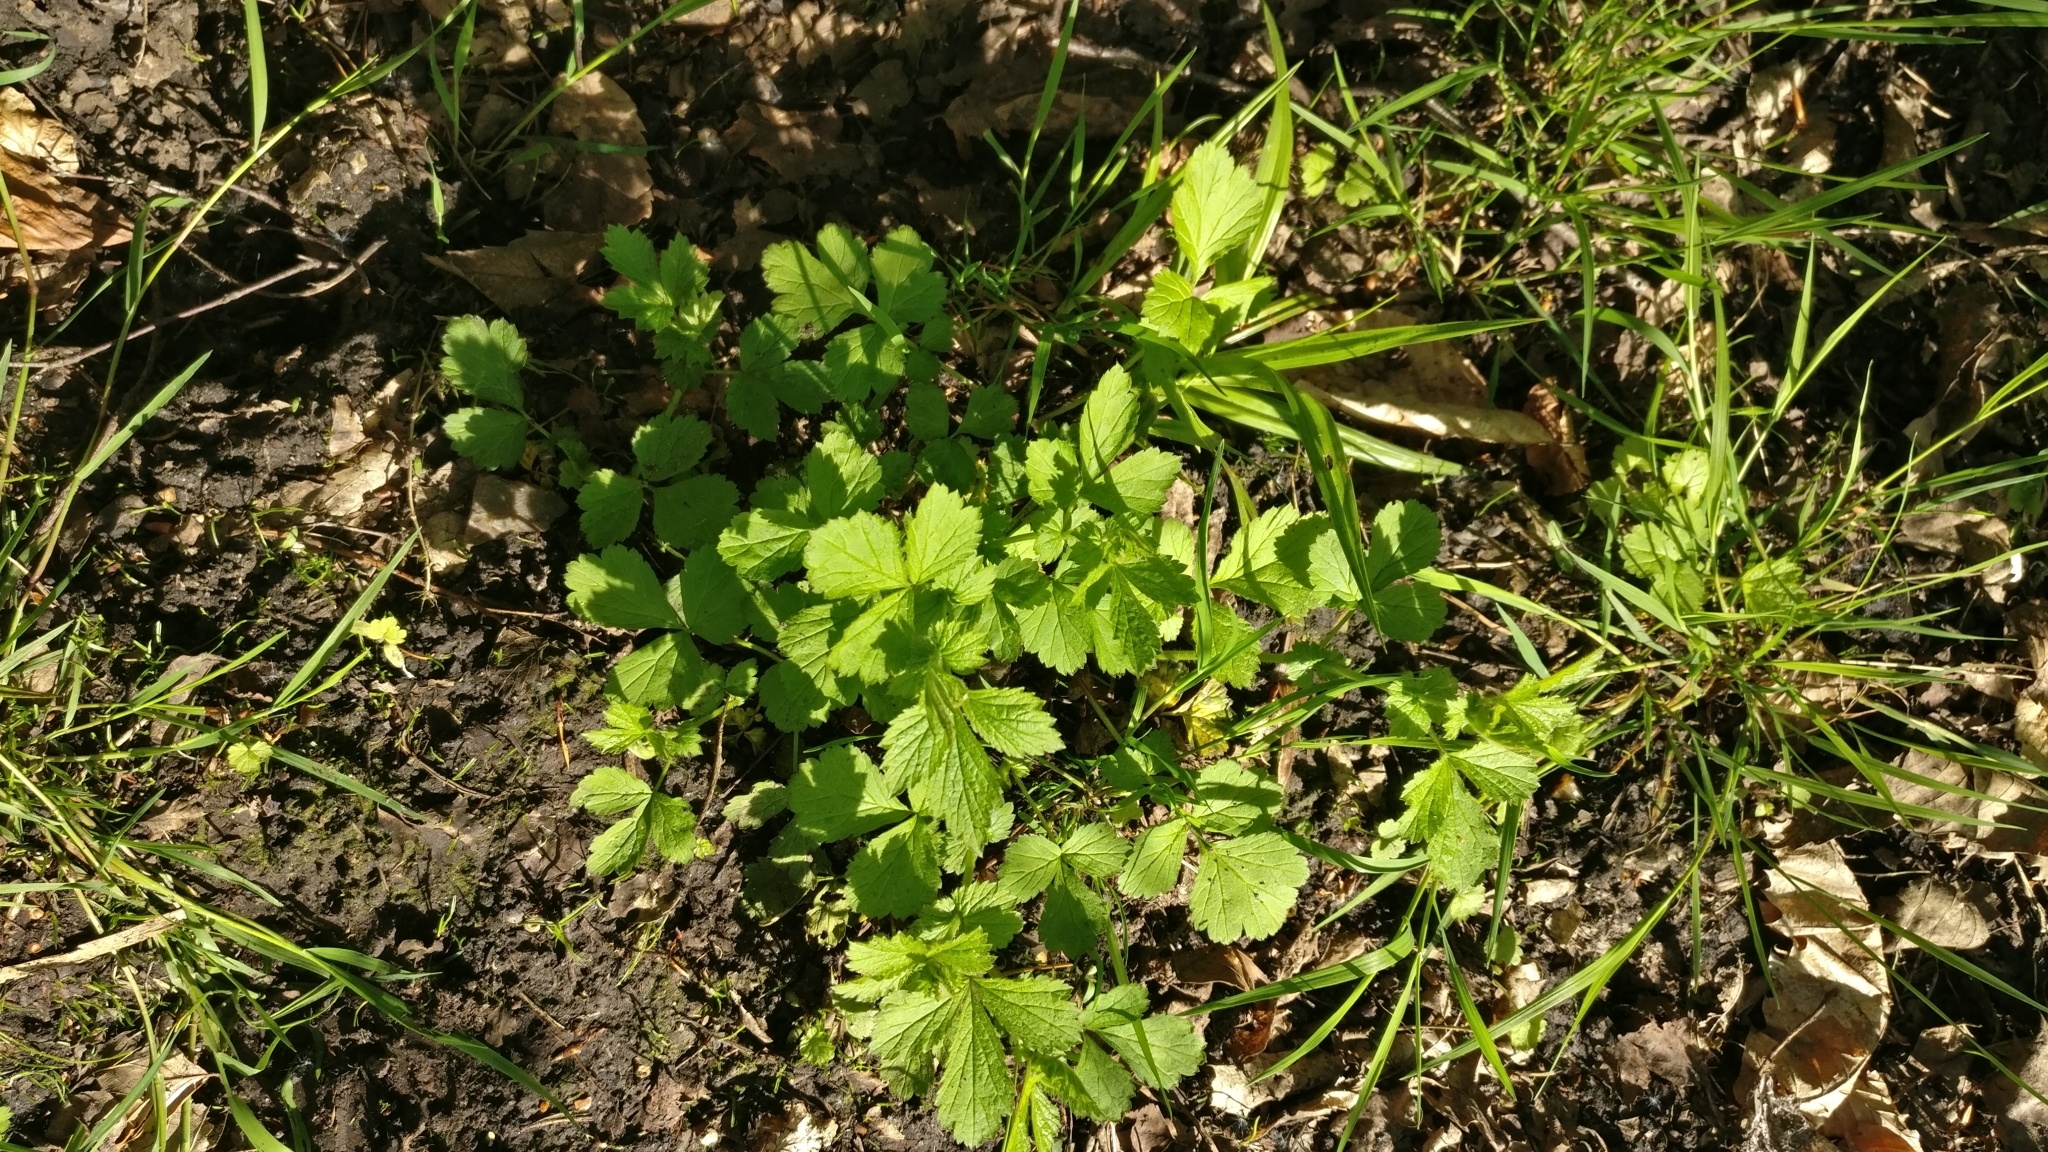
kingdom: Plantae
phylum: Tracheophyta
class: Magnoliopsida
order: Rosales
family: Rosaceae
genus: Geum
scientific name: Geum urbanum
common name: Wood avens
